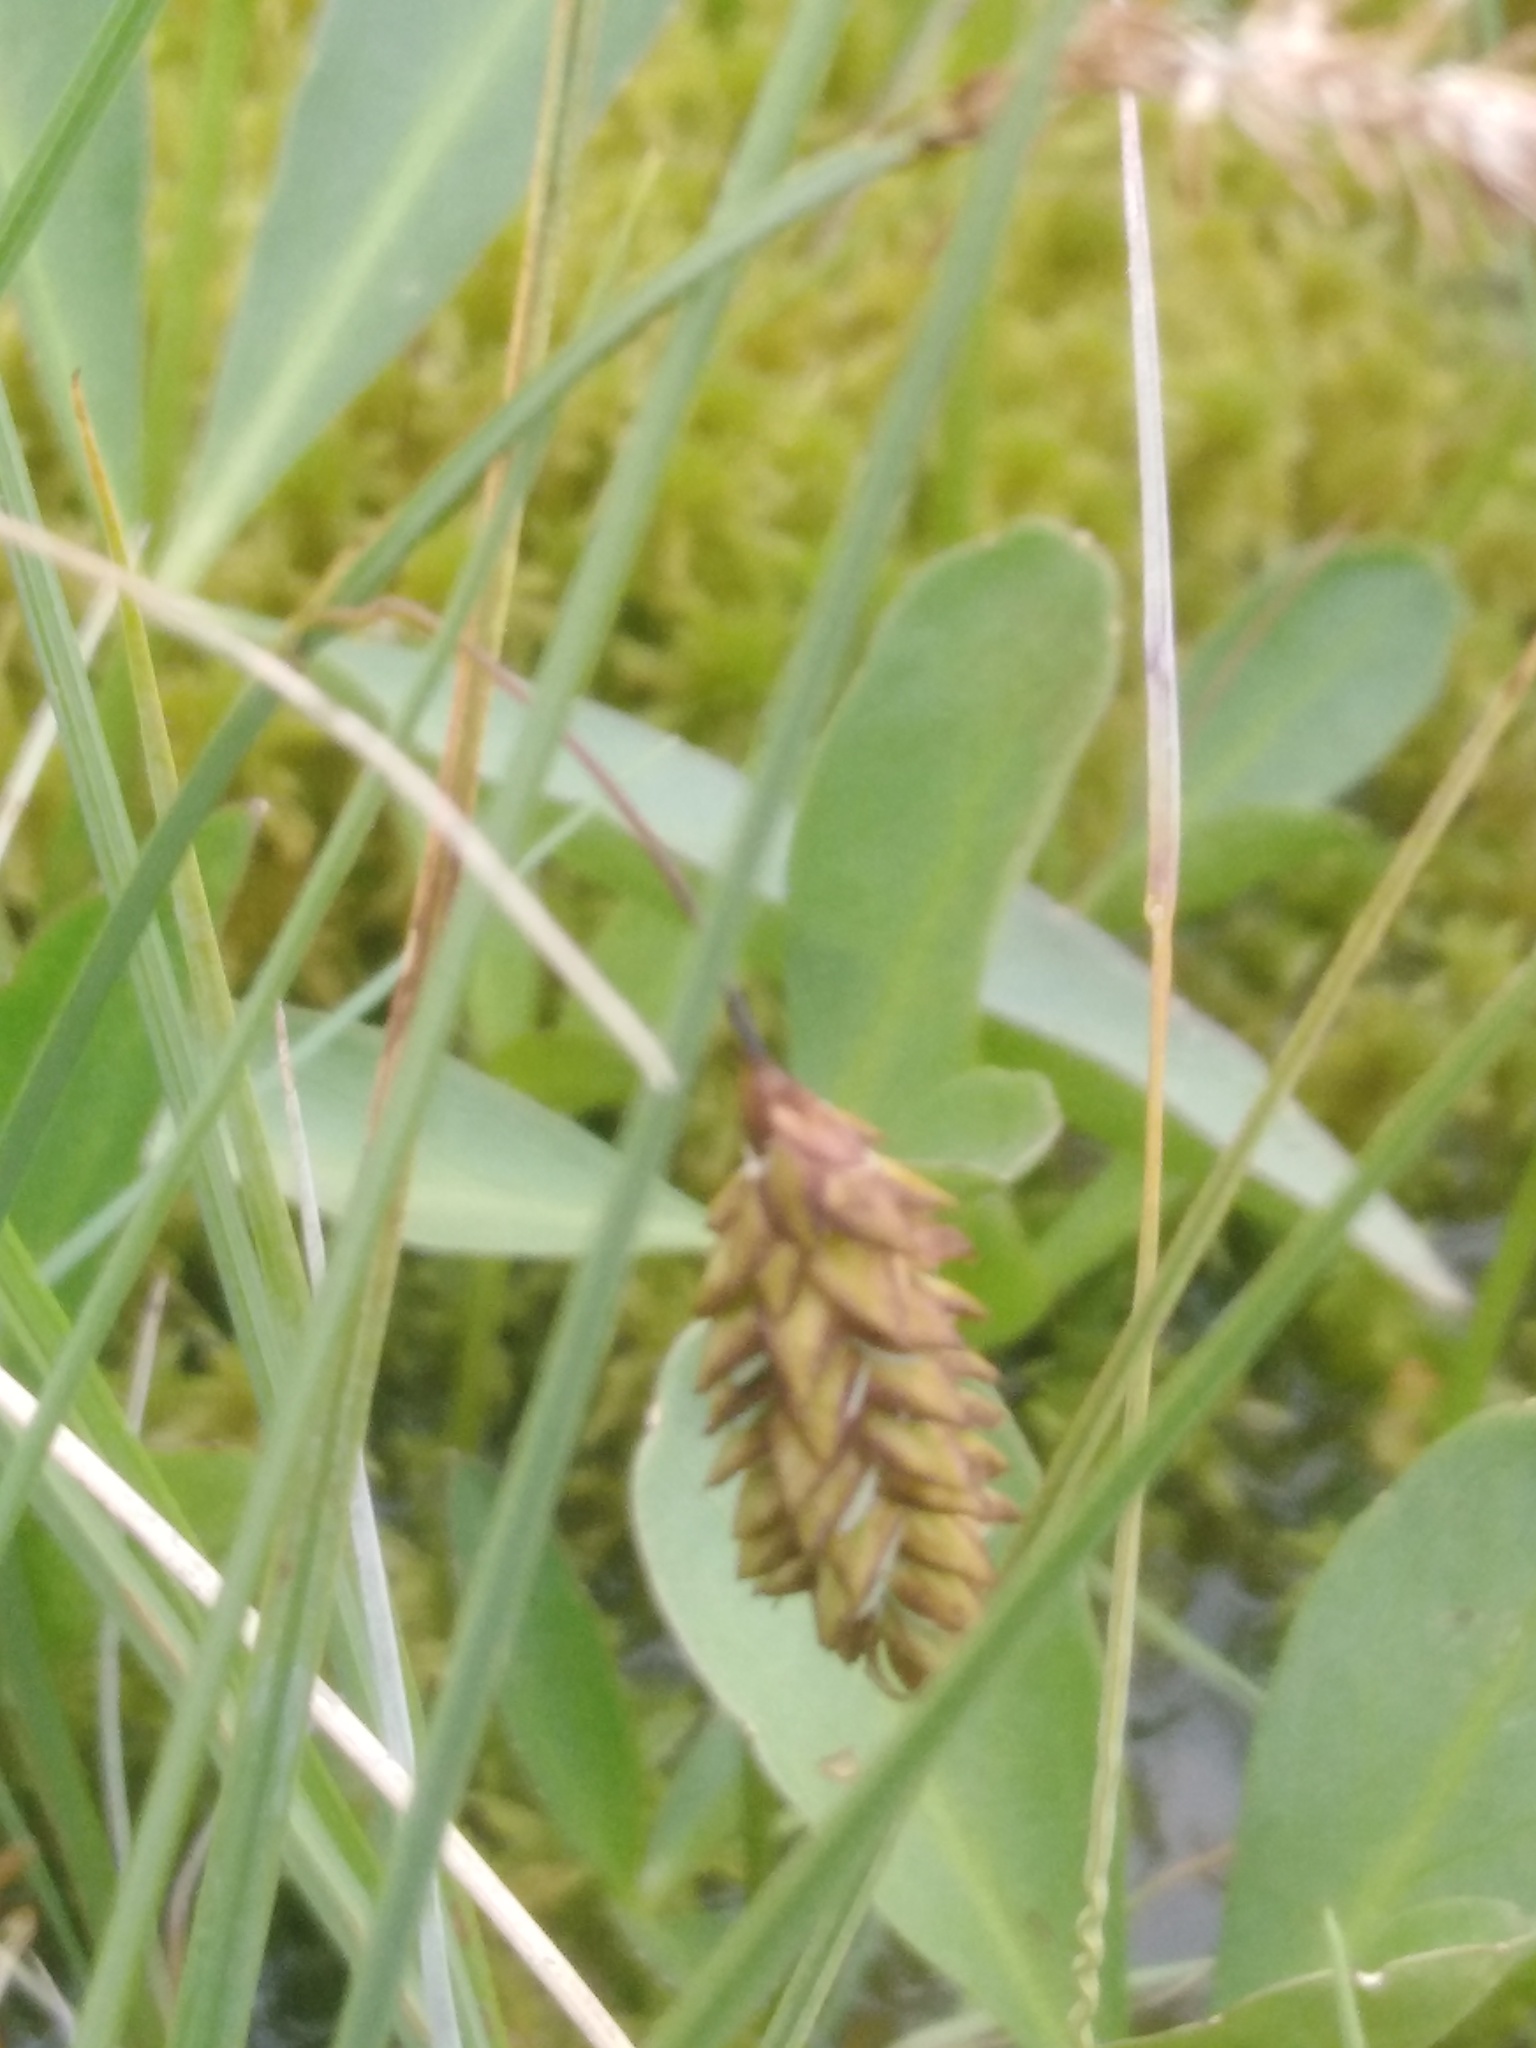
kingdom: Plantae
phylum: Tracheophyta
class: Liliopsida
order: Poales
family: Cyperaceae
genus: Carex
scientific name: Carex limosa
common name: Bog sedge
